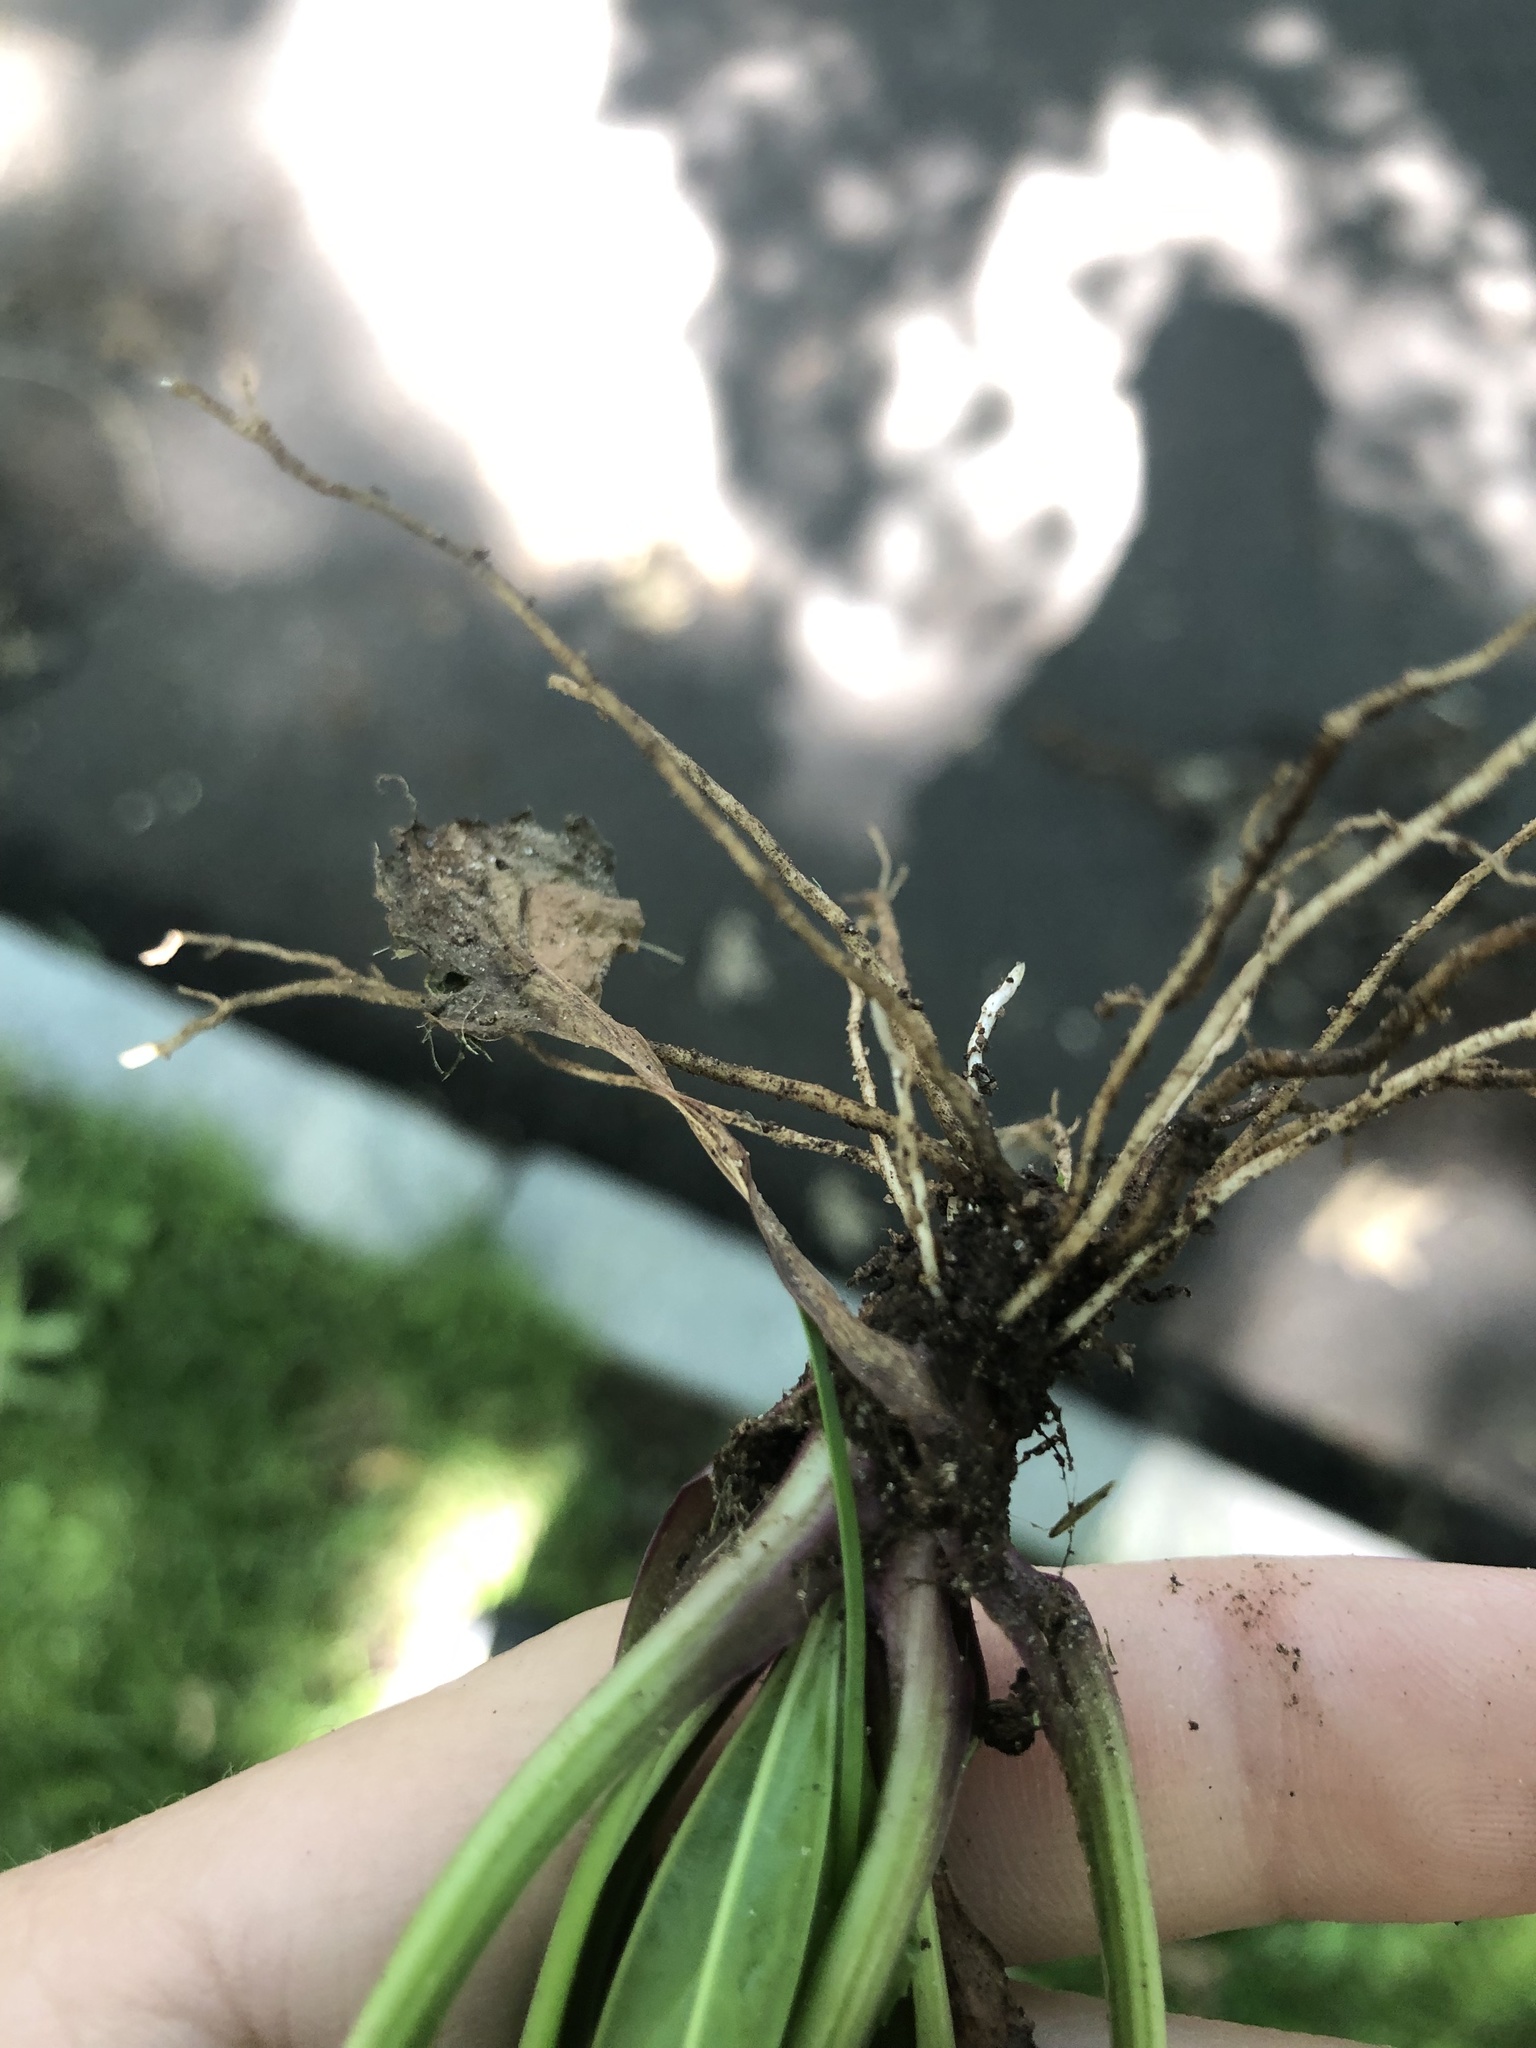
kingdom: Plantae
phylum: Tracheophyta
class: Magnoliopsida
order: Lamiales
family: Plantaginaceae
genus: Plantago
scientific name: Plantago rugelii
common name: American plantain
